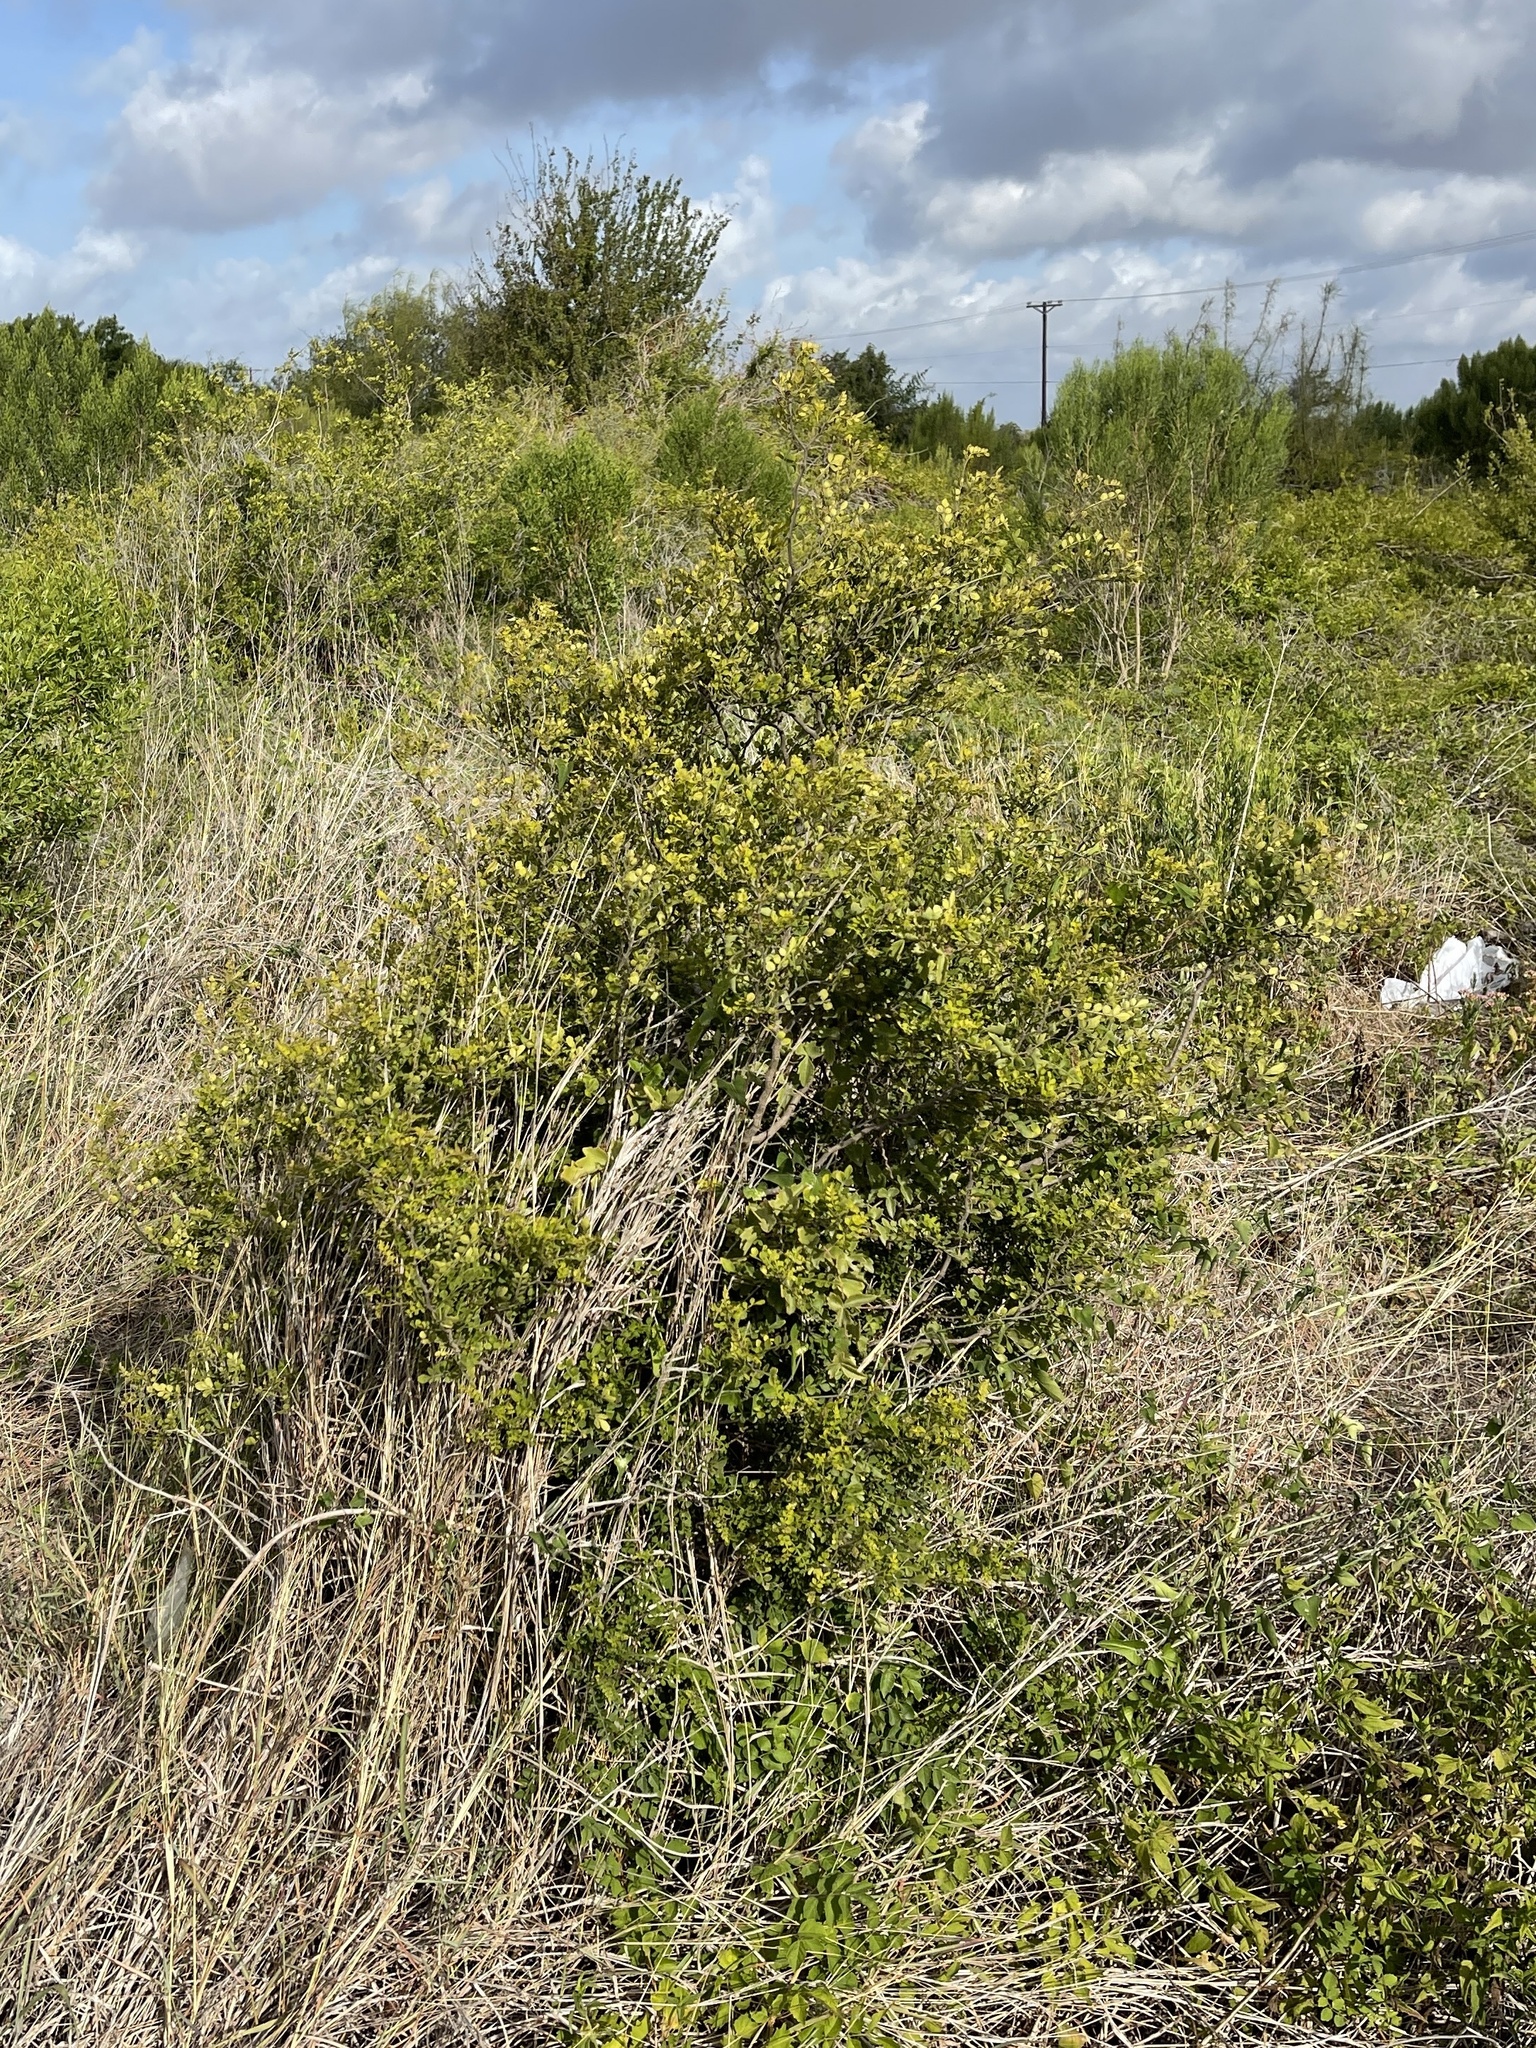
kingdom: Plantae
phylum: Tracheophyta
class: Magnoliopsida
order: Sapindales
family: Rutaceae
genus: Zanthoxylum
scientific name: Zanthoxylum fagara
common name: Lime prickly-ash
